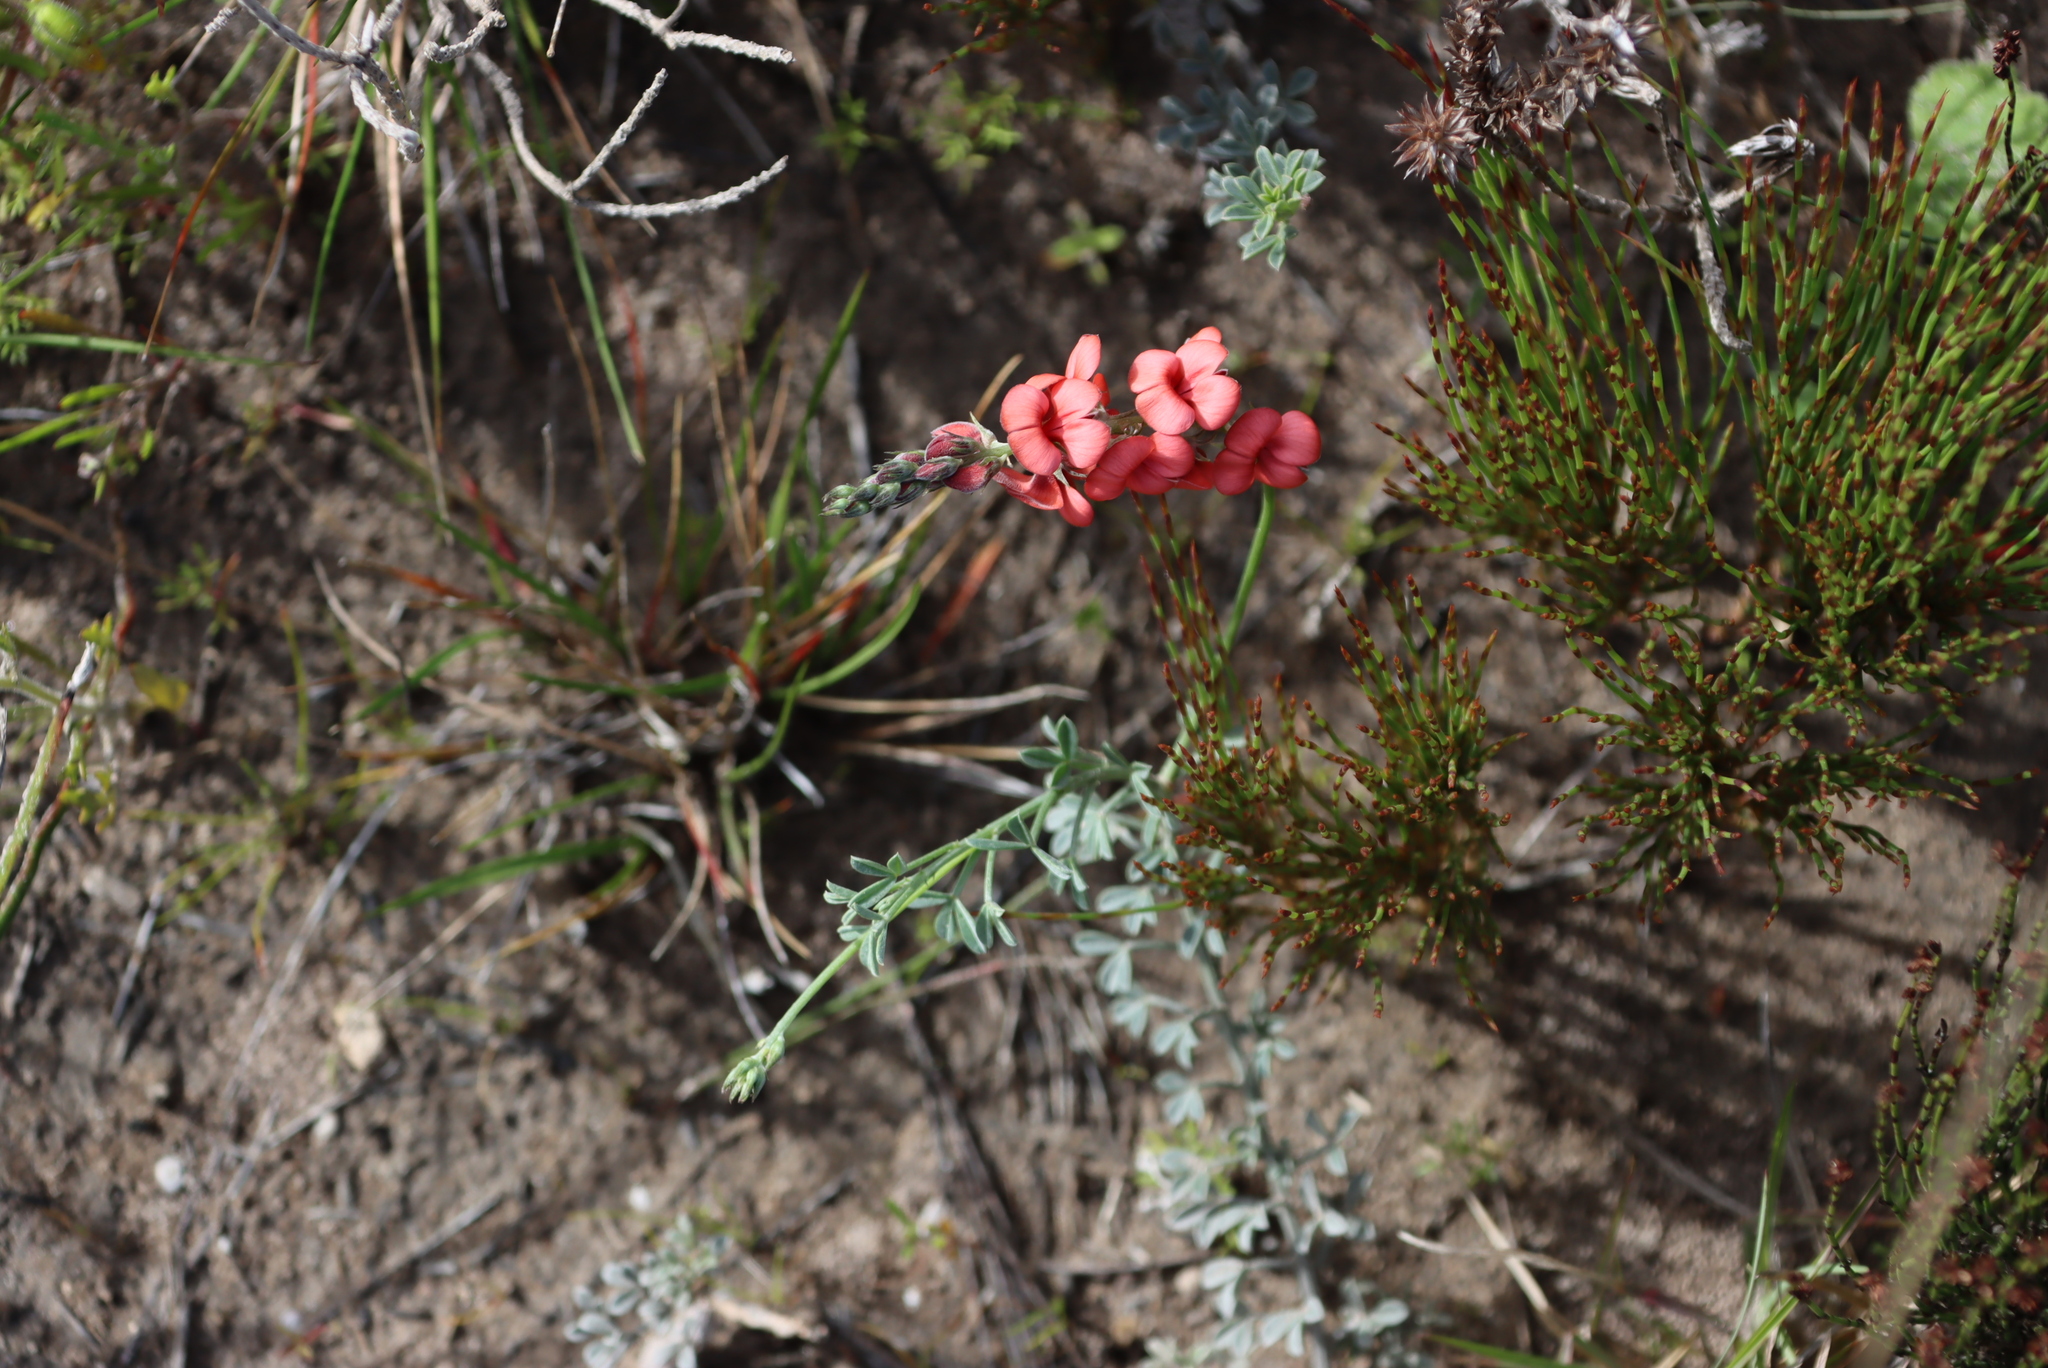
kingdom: Plantae
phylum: Tracheophyta
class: Magnoliopsida
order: Fabales
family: Fabaceae
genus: Indigofera
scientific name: Indigofera heterophylla
